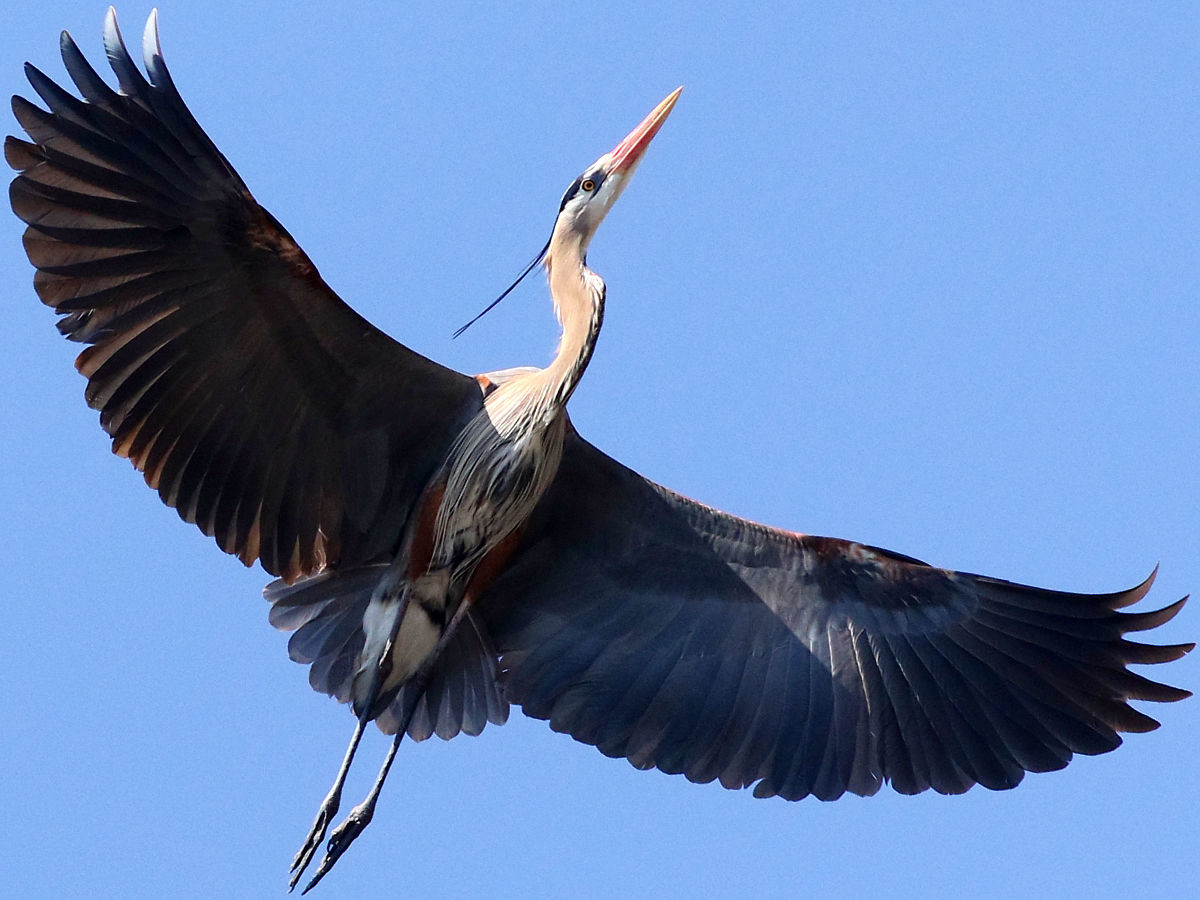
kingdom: Animalia
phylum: Chordata
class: Aves
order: Pelecaniformes
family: Ardeidae
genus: Ardea
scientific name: Ardea herodias
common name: Great blue heron
